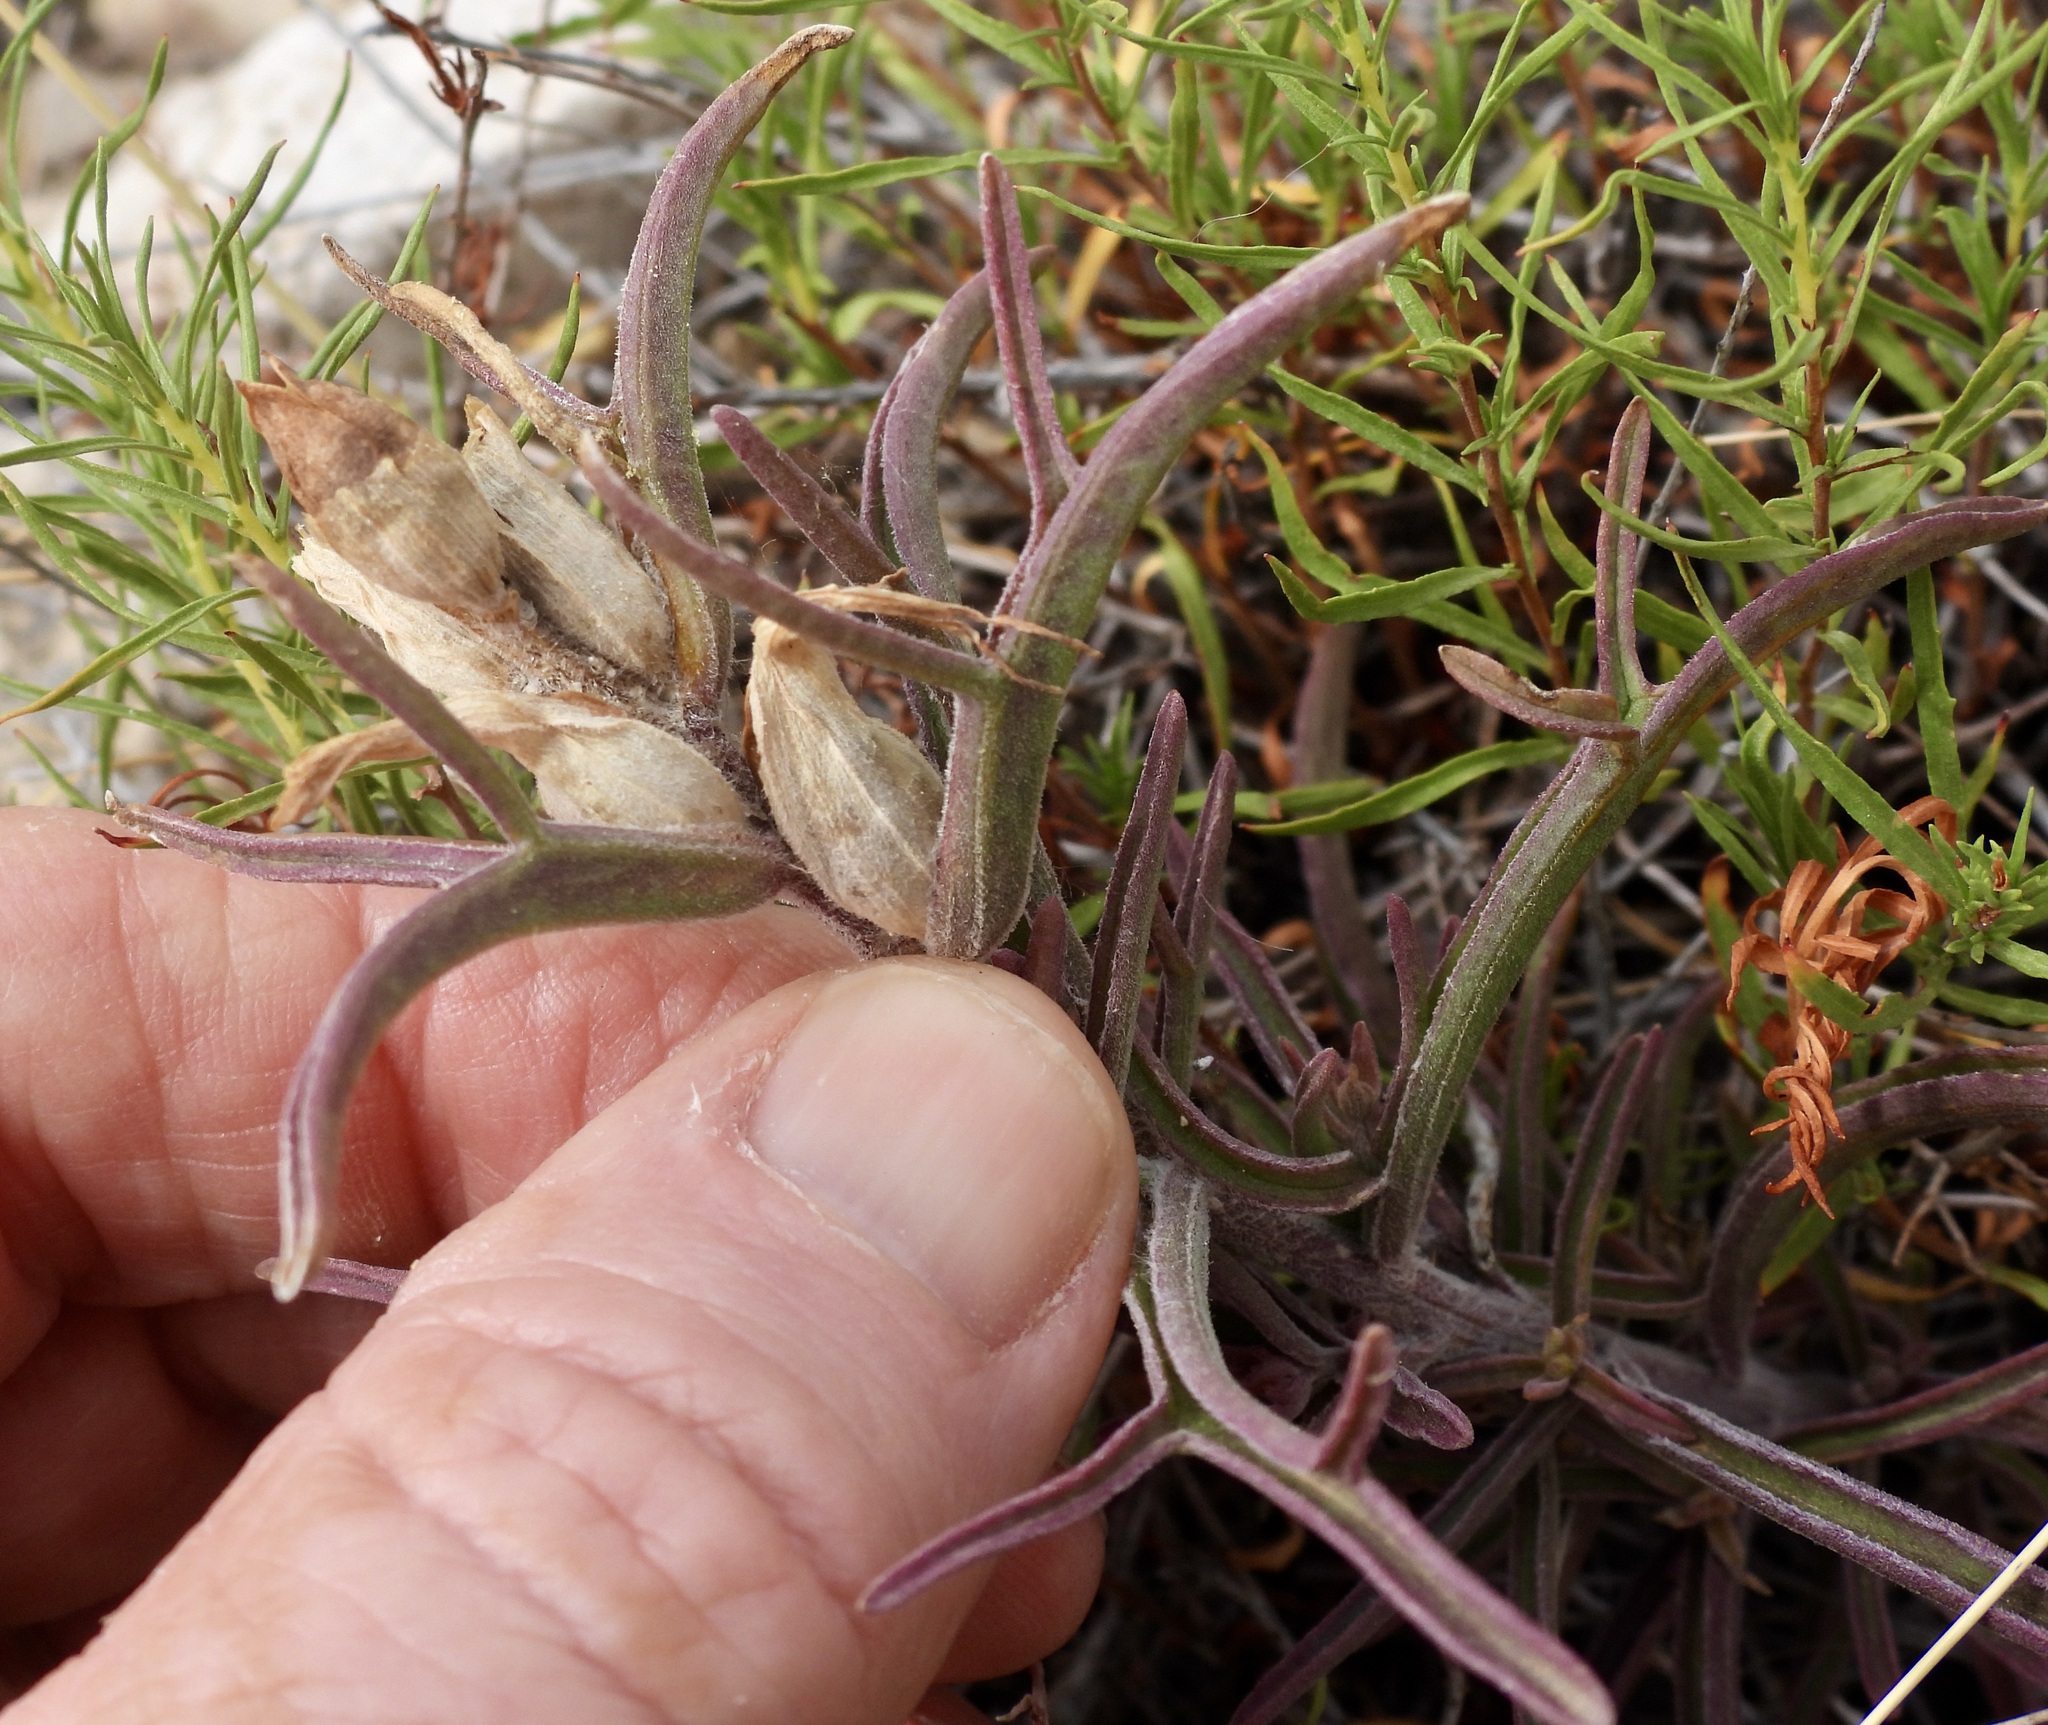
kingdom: Plantae
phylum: Tracheophyta
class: Magnoliopsida
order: Lamiales
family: Orobanchaceae
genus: Castilleja
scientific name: Castilleja sessiliflora
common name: Downy paintbrush
